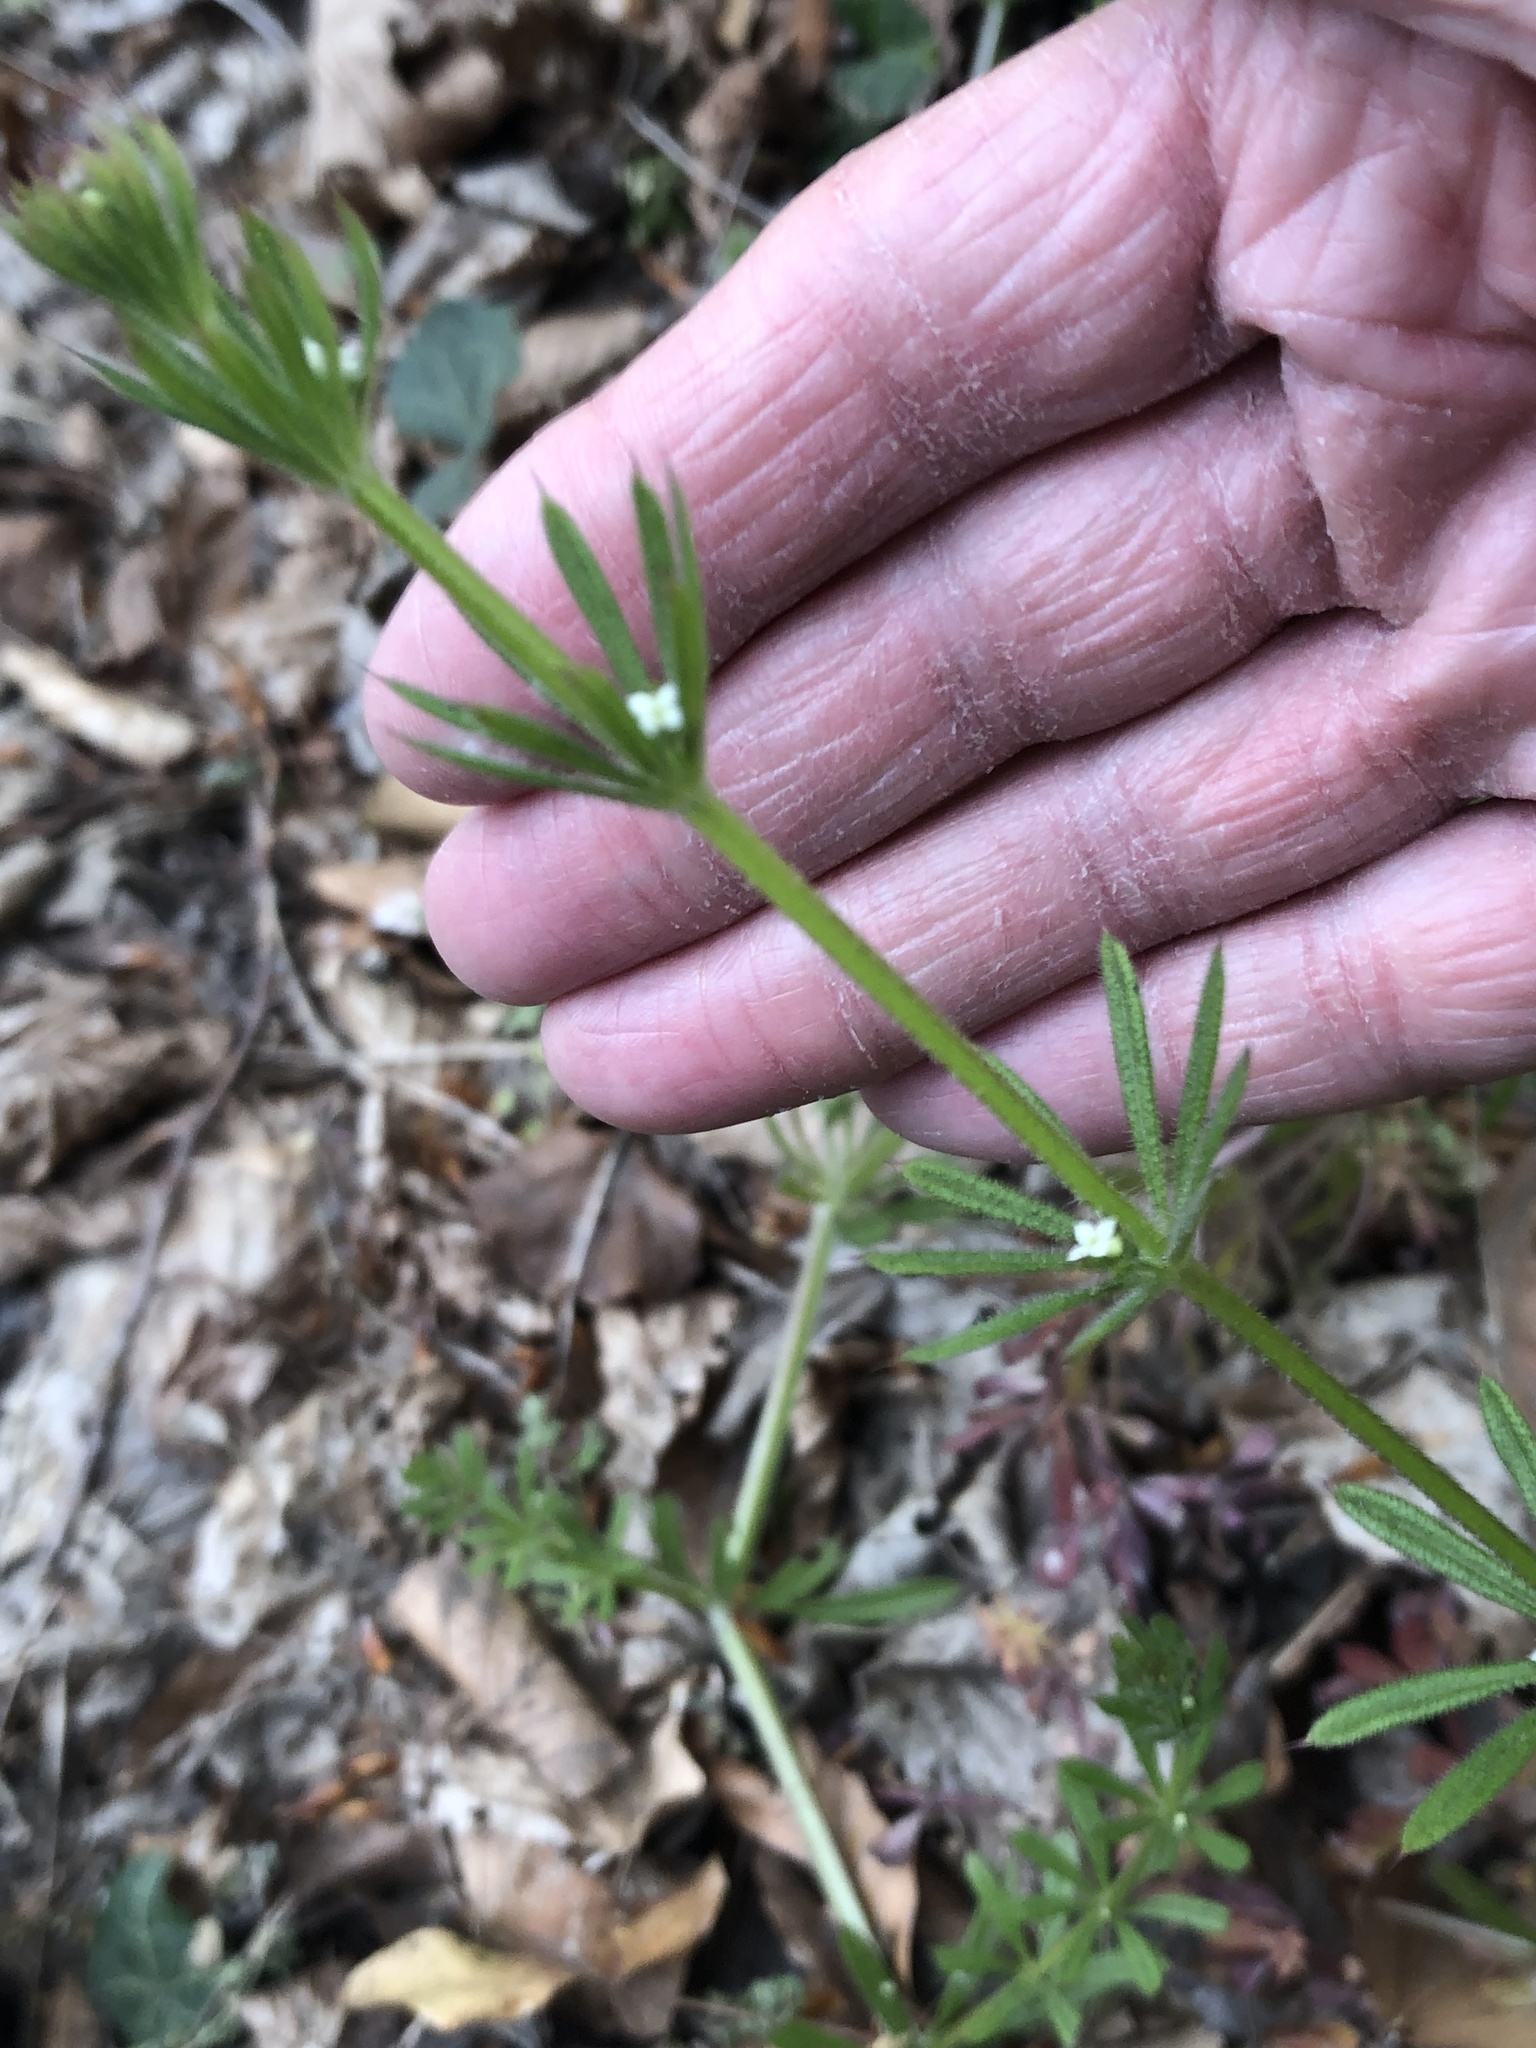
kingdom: Plantae
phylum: Tracheophyta
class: Magnoliopsida
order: Gentianales
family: Rubiaceae
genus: Galium
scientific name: Galium aparine
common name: Cleavers
